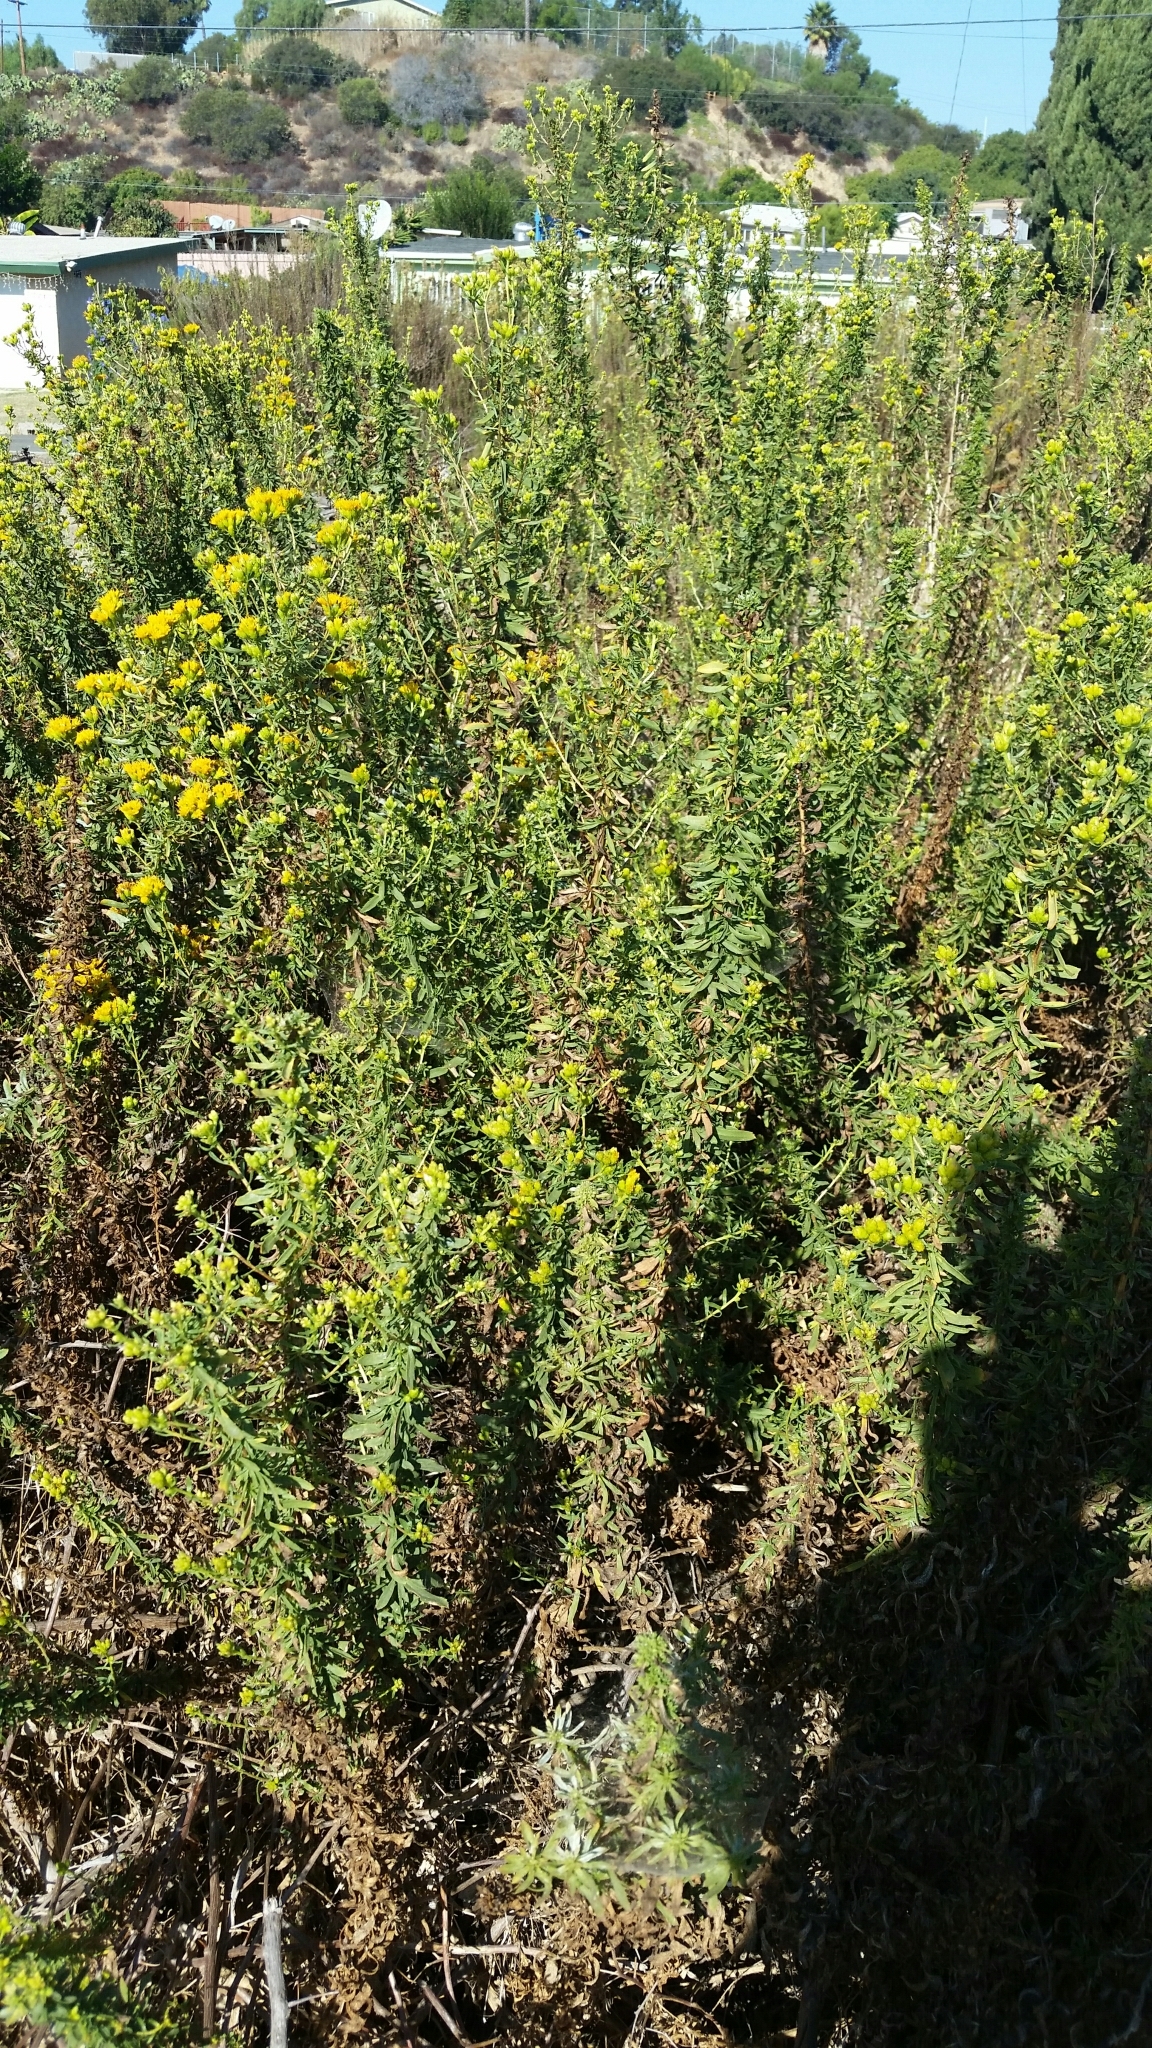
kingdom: Plantae
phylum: Tracheophyta
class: Magnoliopsida
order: Asterales
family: Asteraceae
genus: Isocoma
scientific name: Isocoma menziesii
